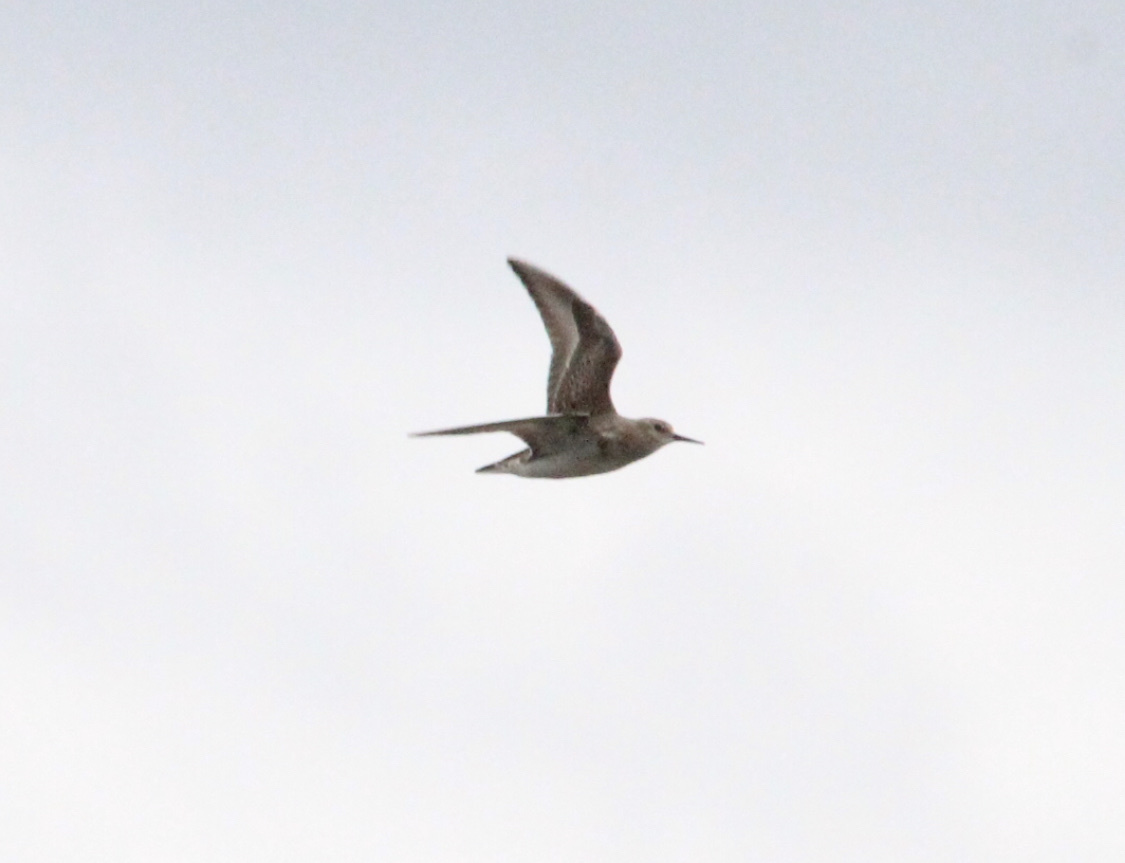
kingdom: Animalia
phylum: Chordata
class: Aves
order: Charadriiformes
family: Scolopacidae
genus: Calidris
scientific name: Calidris bairdii
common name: Baird's sandpiper
